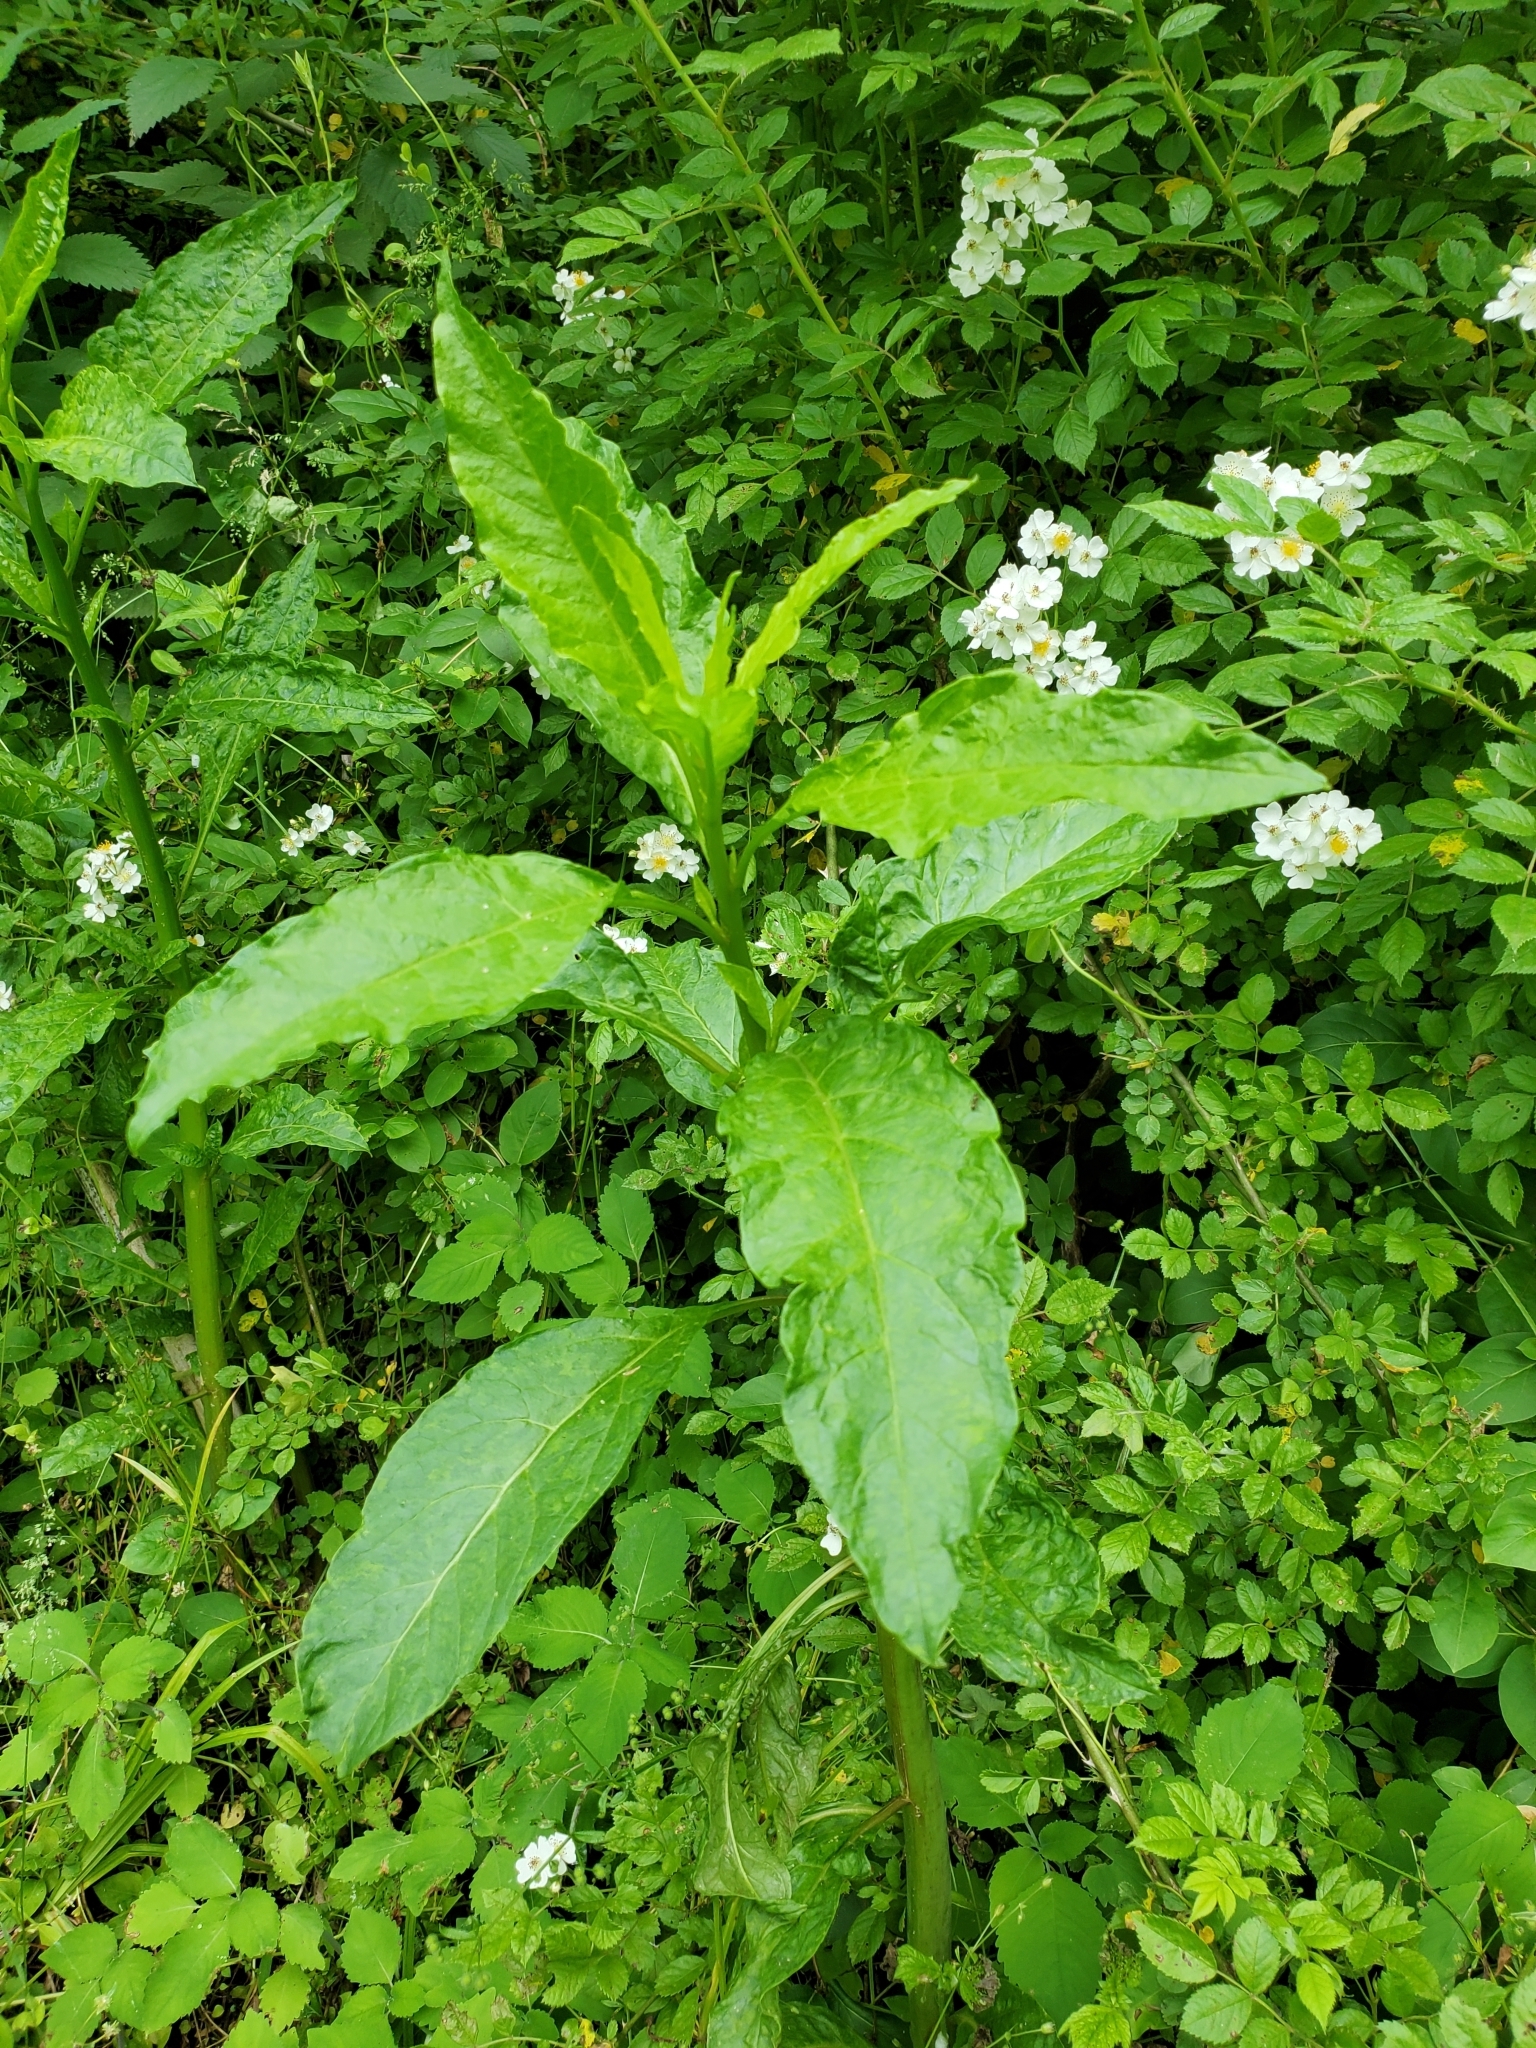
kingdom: Plantae
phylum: Tracheophyta
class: Magnoliopsida
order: Caryophyllales
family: Phytolaccaceae
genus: Phytolacca
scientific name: Phytolacca americana
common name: American pokeweed
